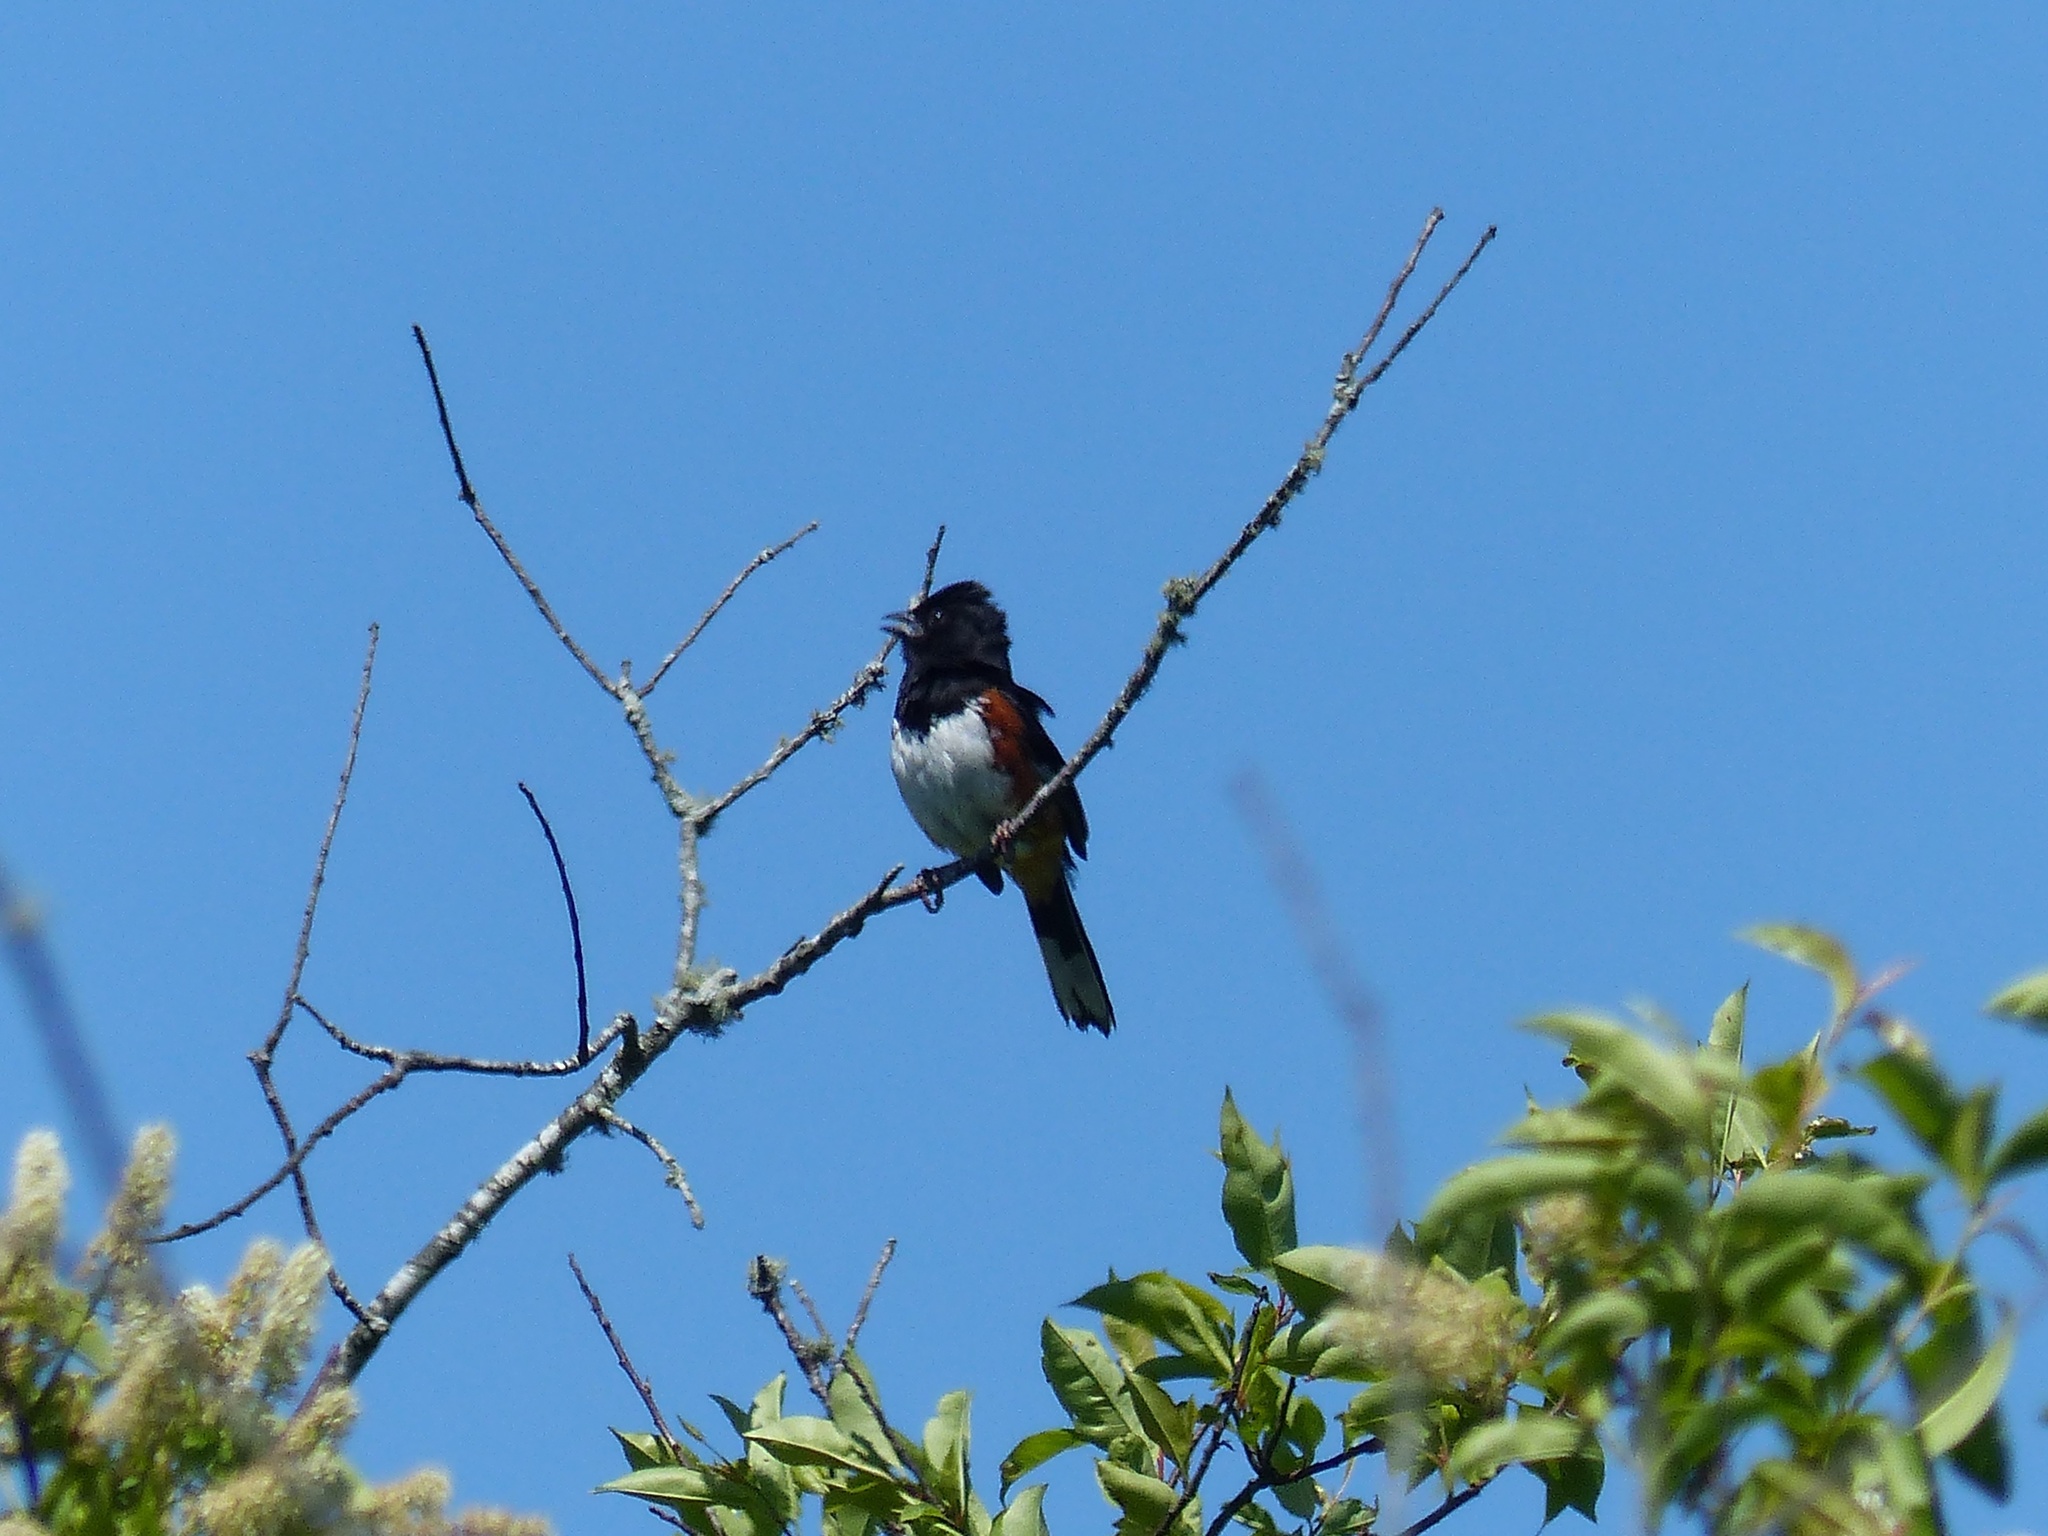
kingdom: Animalia
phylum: Chordata
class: Aves
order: Passeriformes
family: Passerellidae
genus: Pipilo
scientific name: Pipilo erythrophthalmus
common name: Eastern towhee
